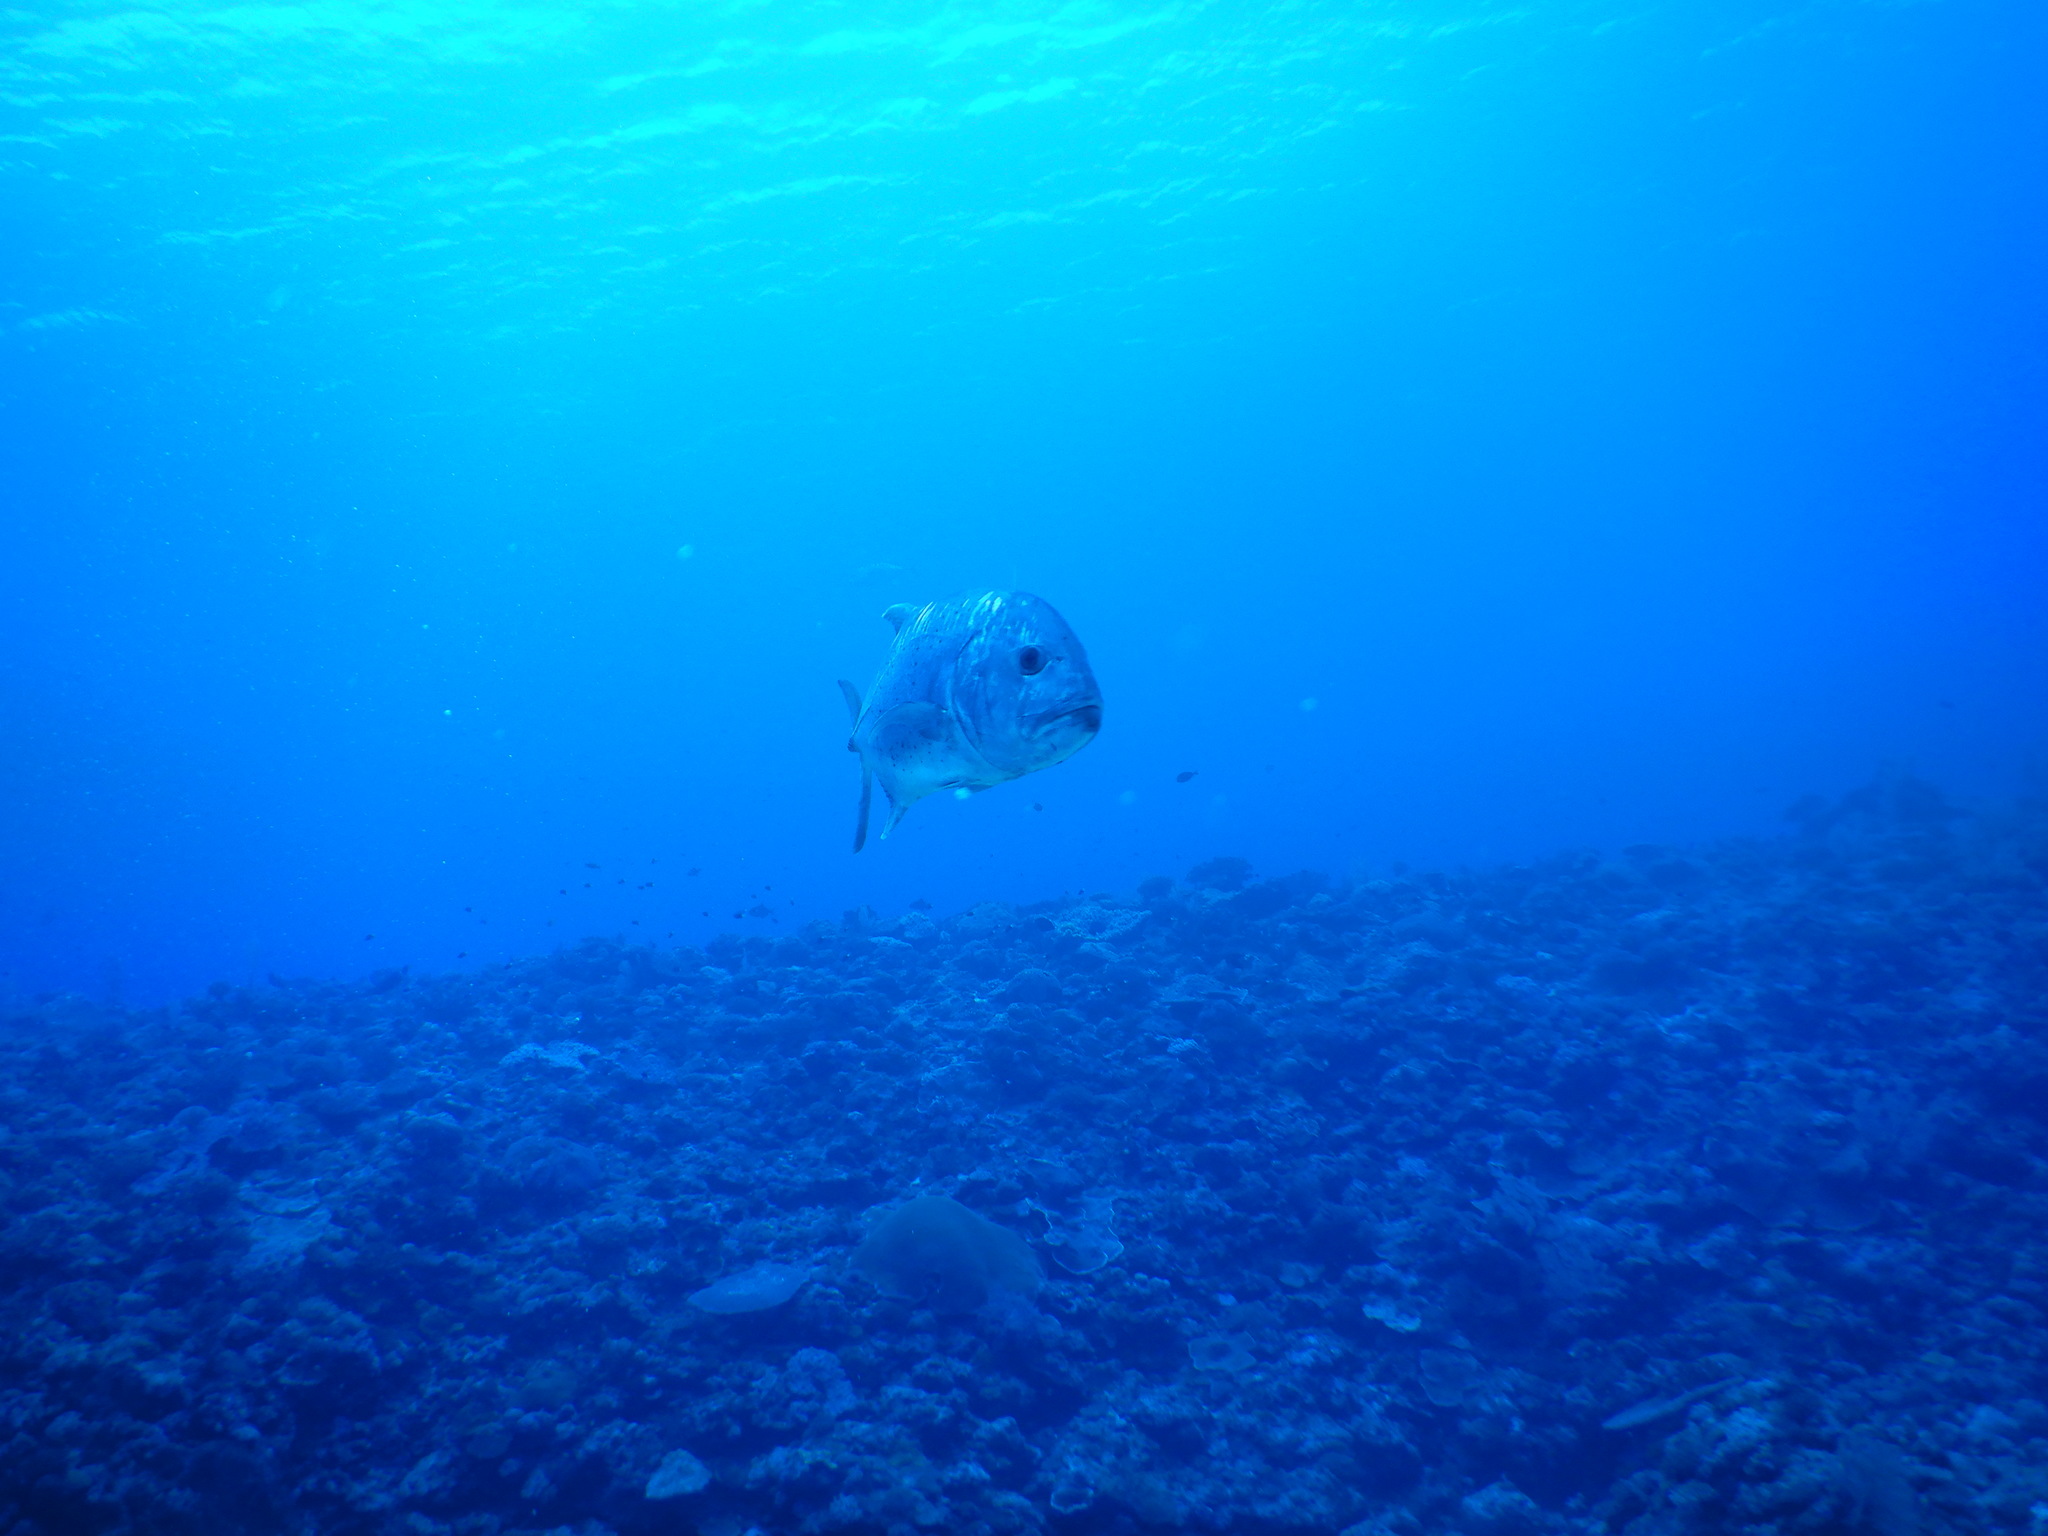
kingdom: Animalia
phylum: Chordata
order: Perciformes
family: Carangidae
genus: Caranx
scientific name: Caranx ignobilis
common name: Giant trevally
